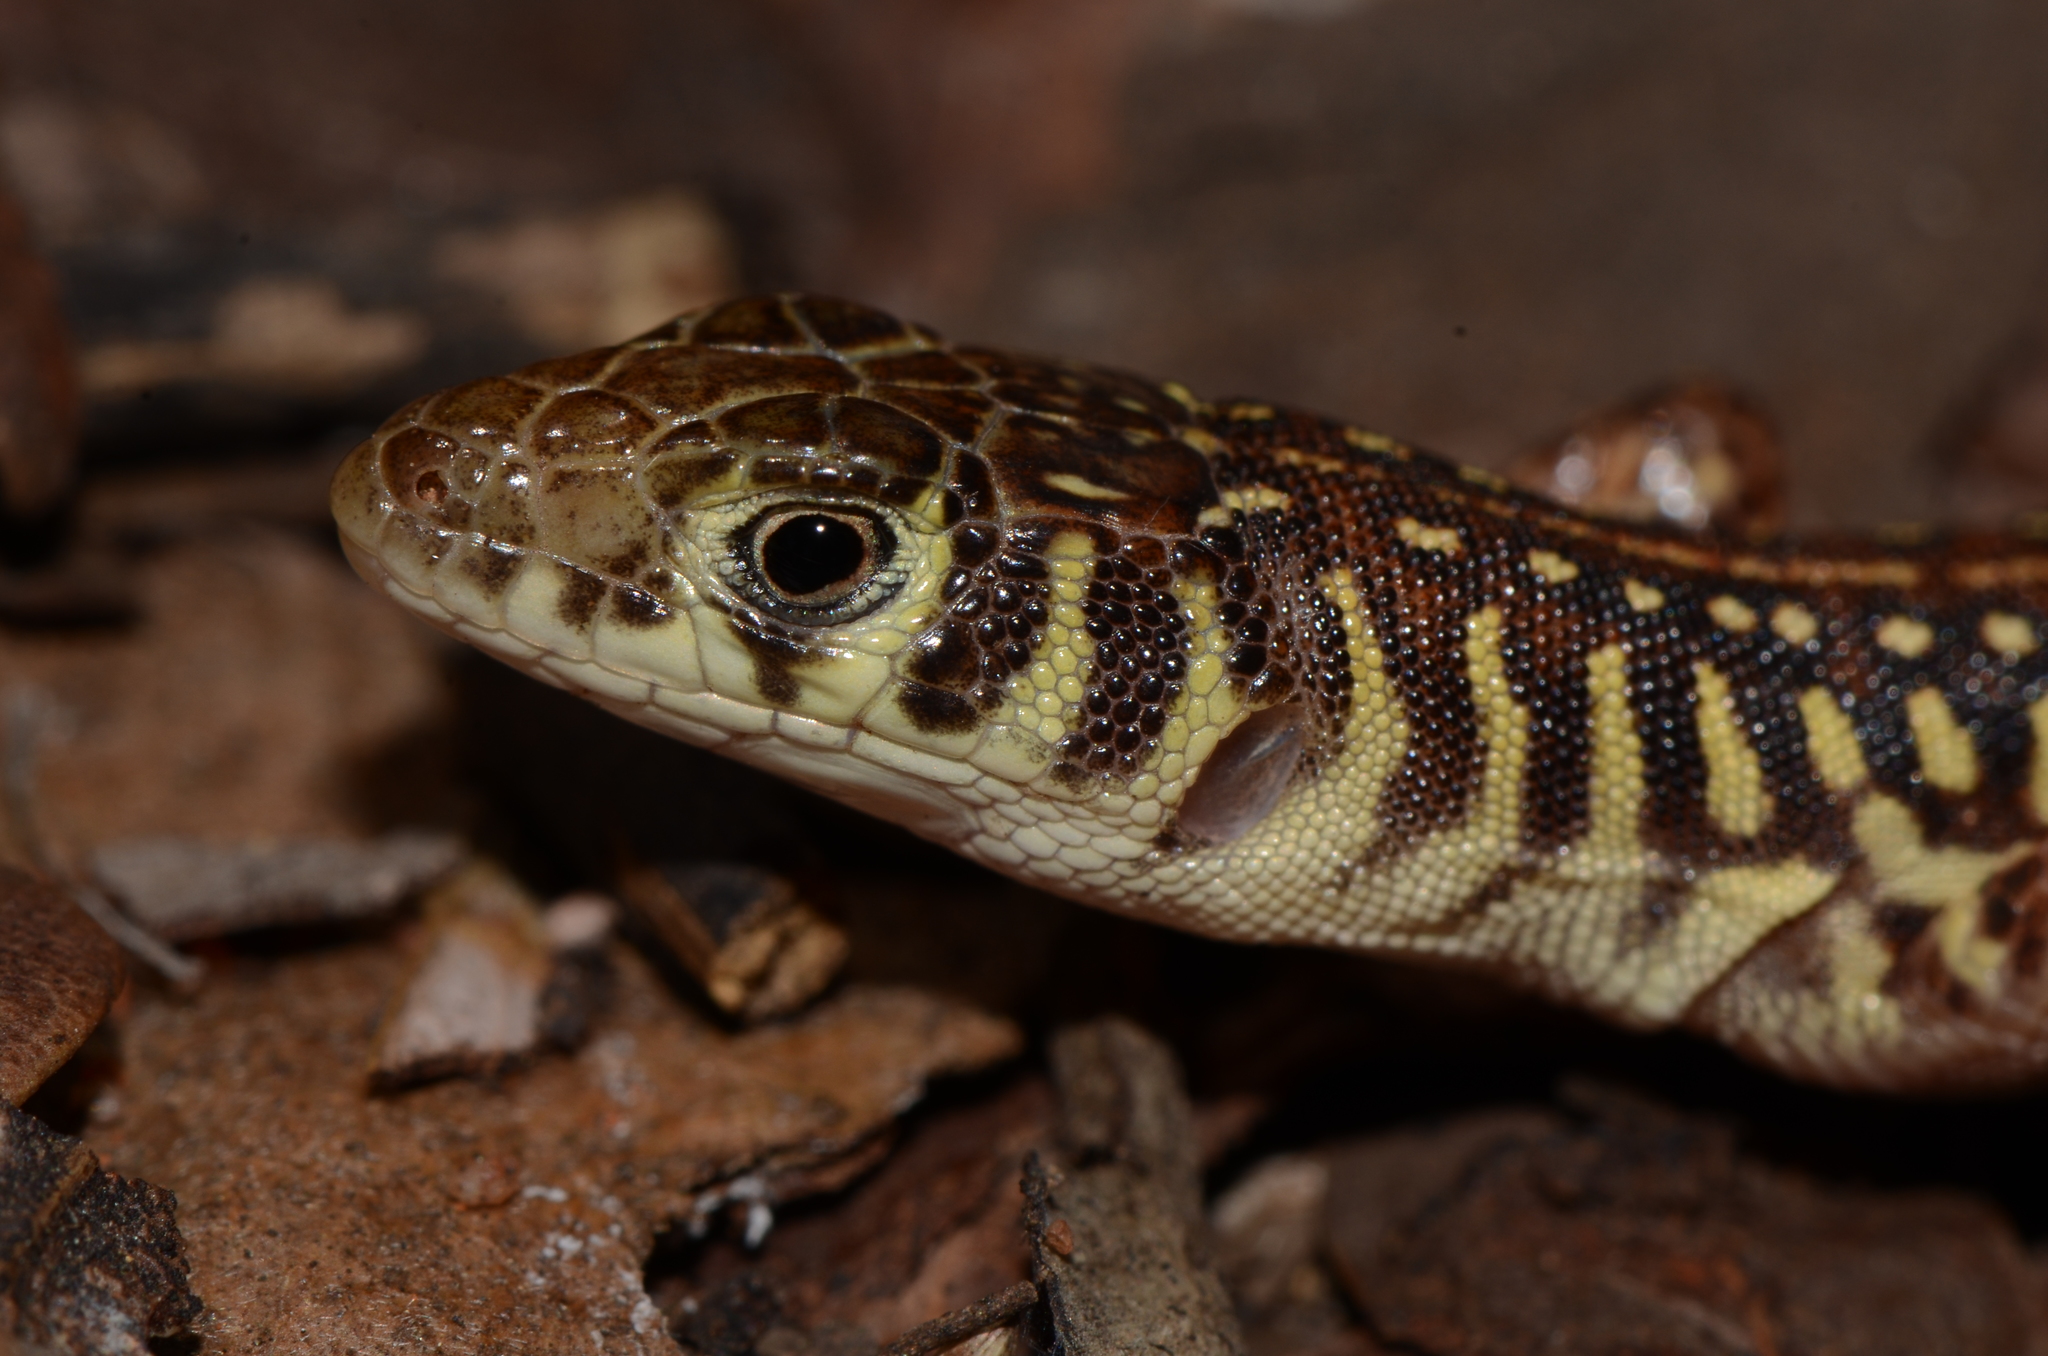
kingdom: Animalia
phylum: Chordata
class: Squamata
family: Lacertidae
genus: Nucras
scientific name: Nucras intertexta
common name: Spotted sandveld lizard
